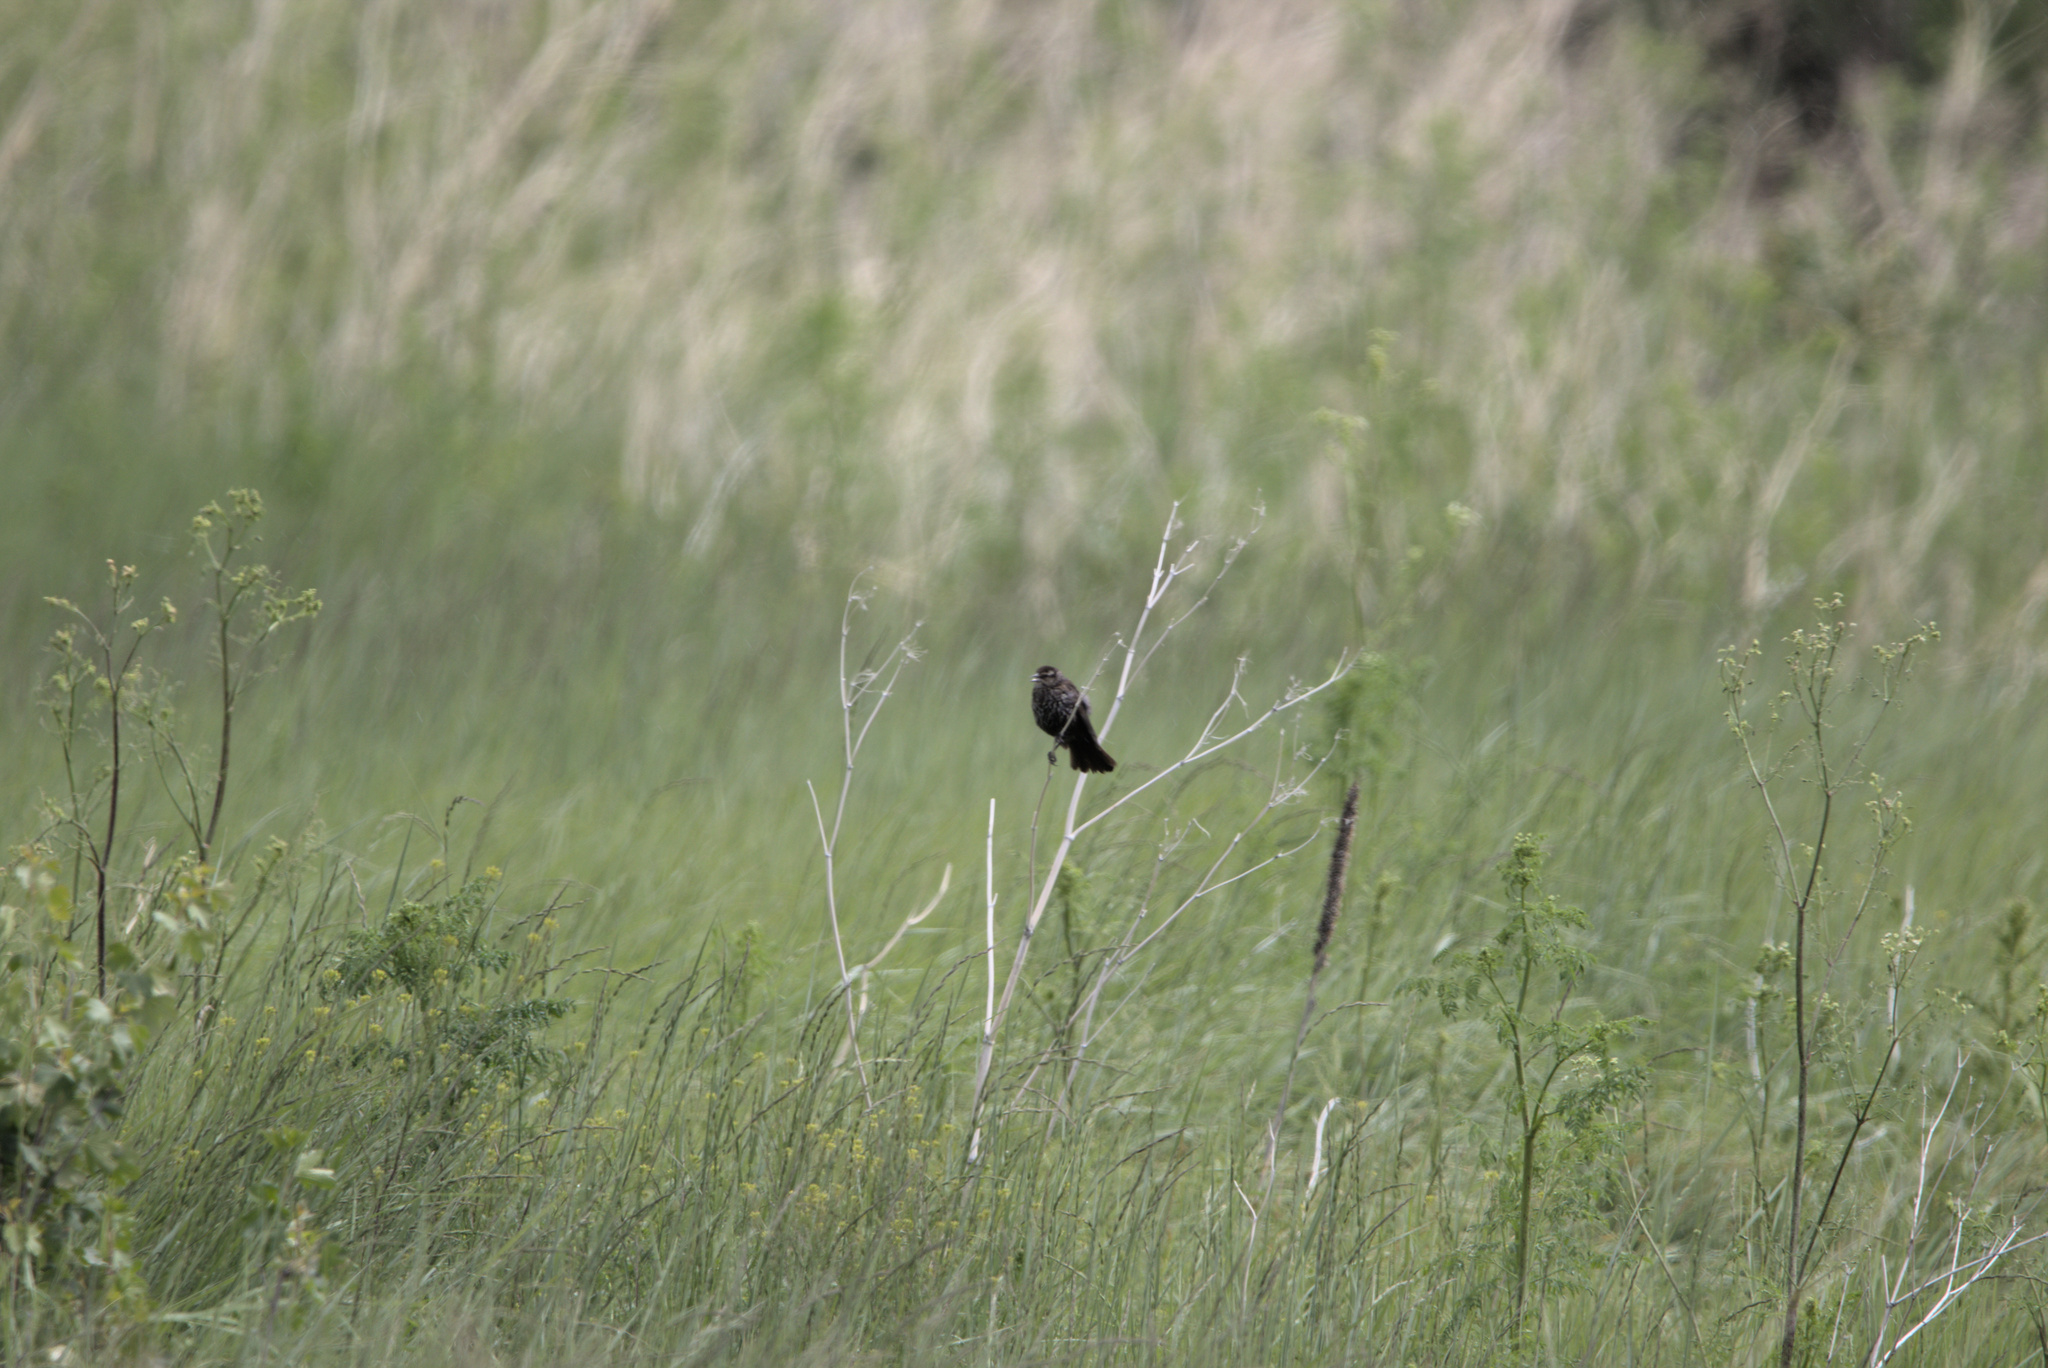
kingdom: Animalia
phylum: Chordata
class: Aves
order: Passeriformes
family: Icteridae
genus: Agelaius
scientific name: Agelaius phoeniceus
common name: Red-winged blackbird
